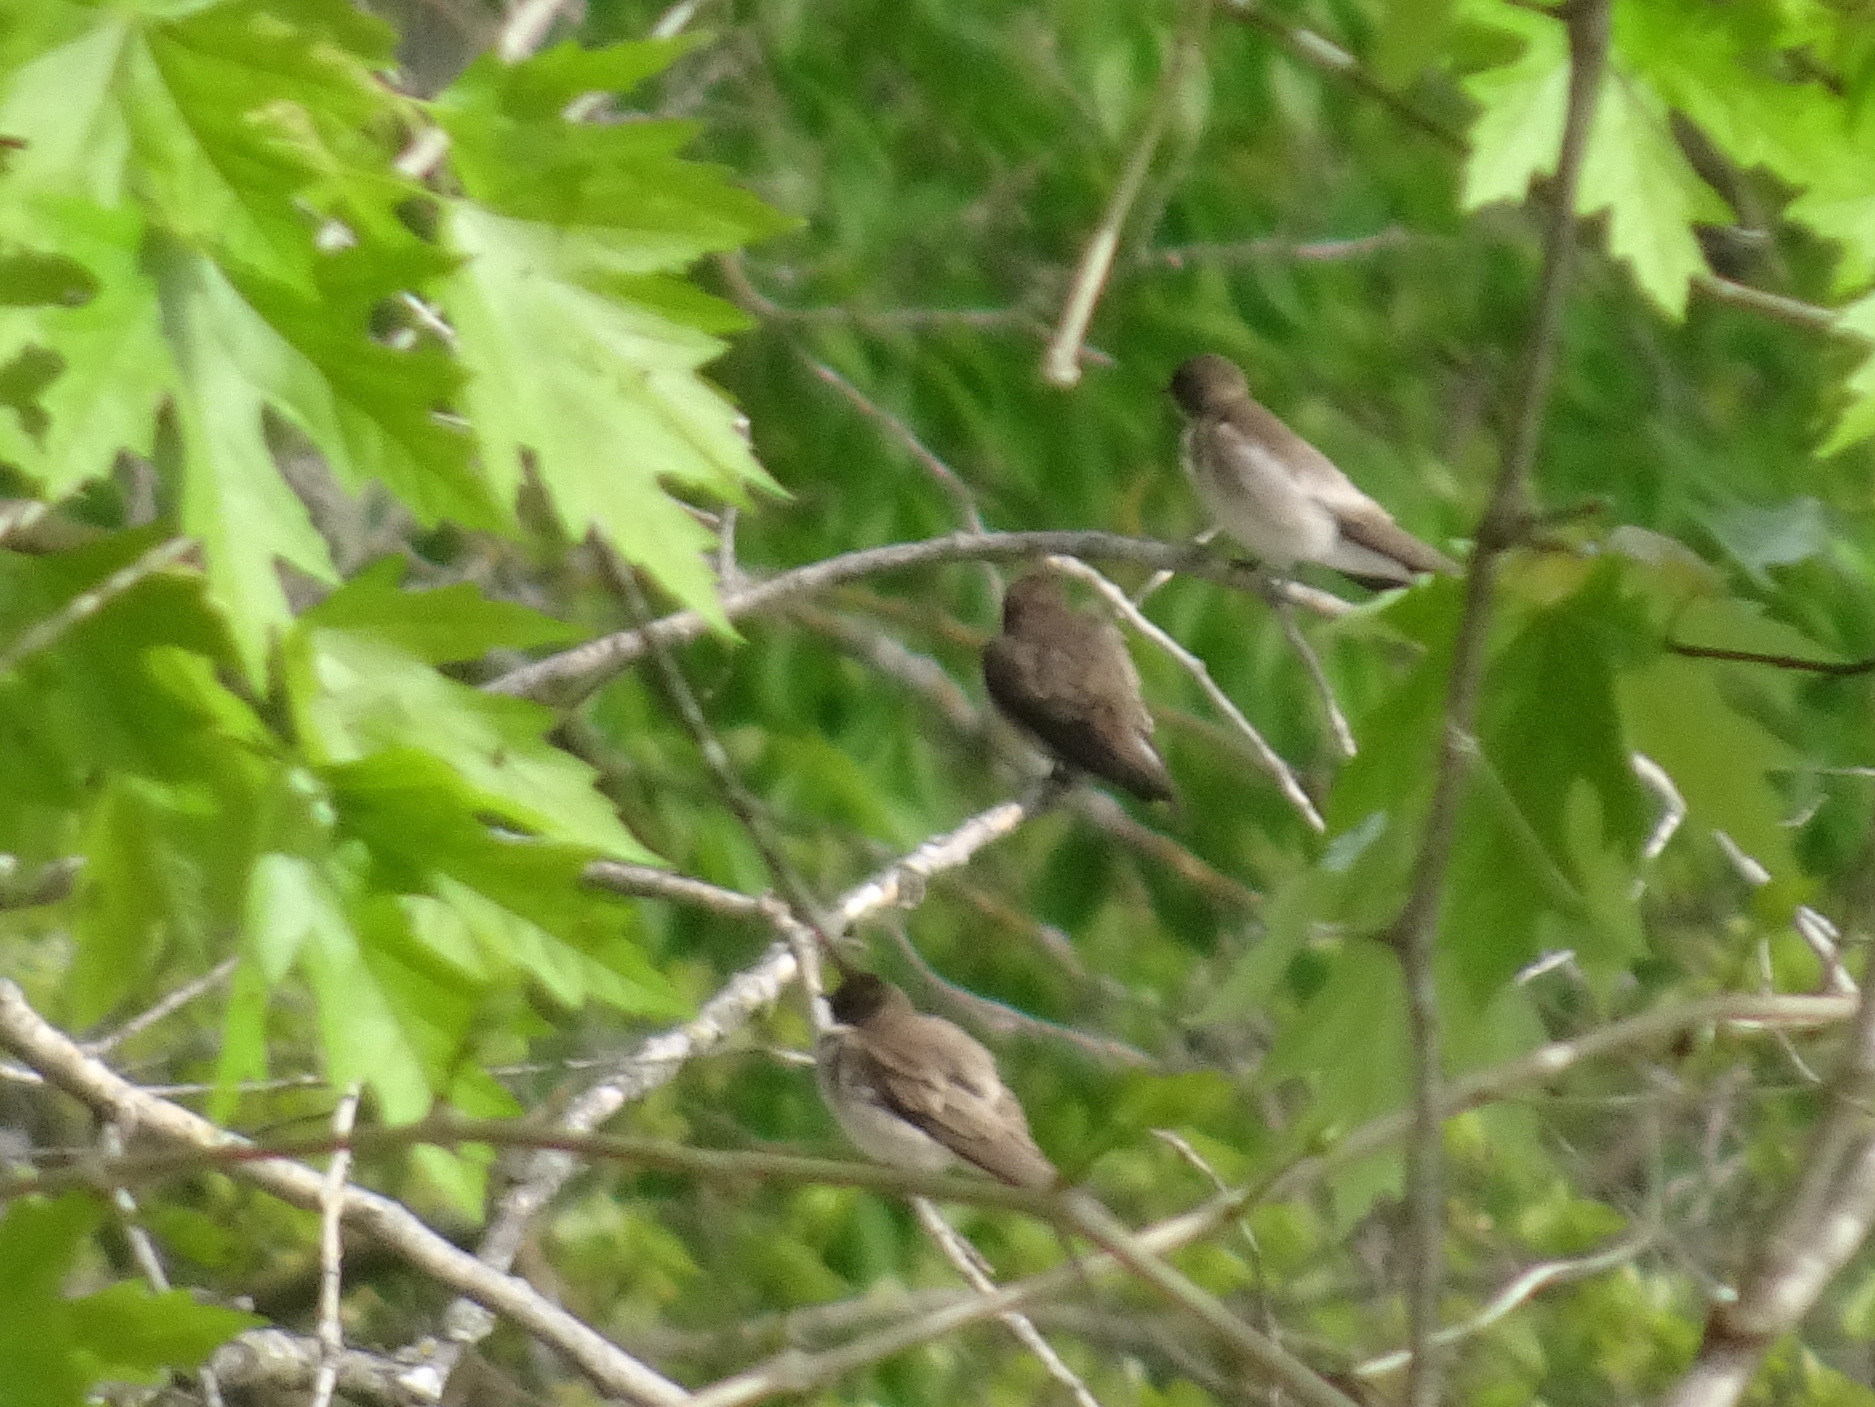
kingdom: Animalia
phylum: Chordata
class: Aves
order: Passeriformes
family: Hirundinidae
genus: Stelgidopteryx
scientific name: Stelgidopteryx serripennis
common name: Northern rough-winged swallow
